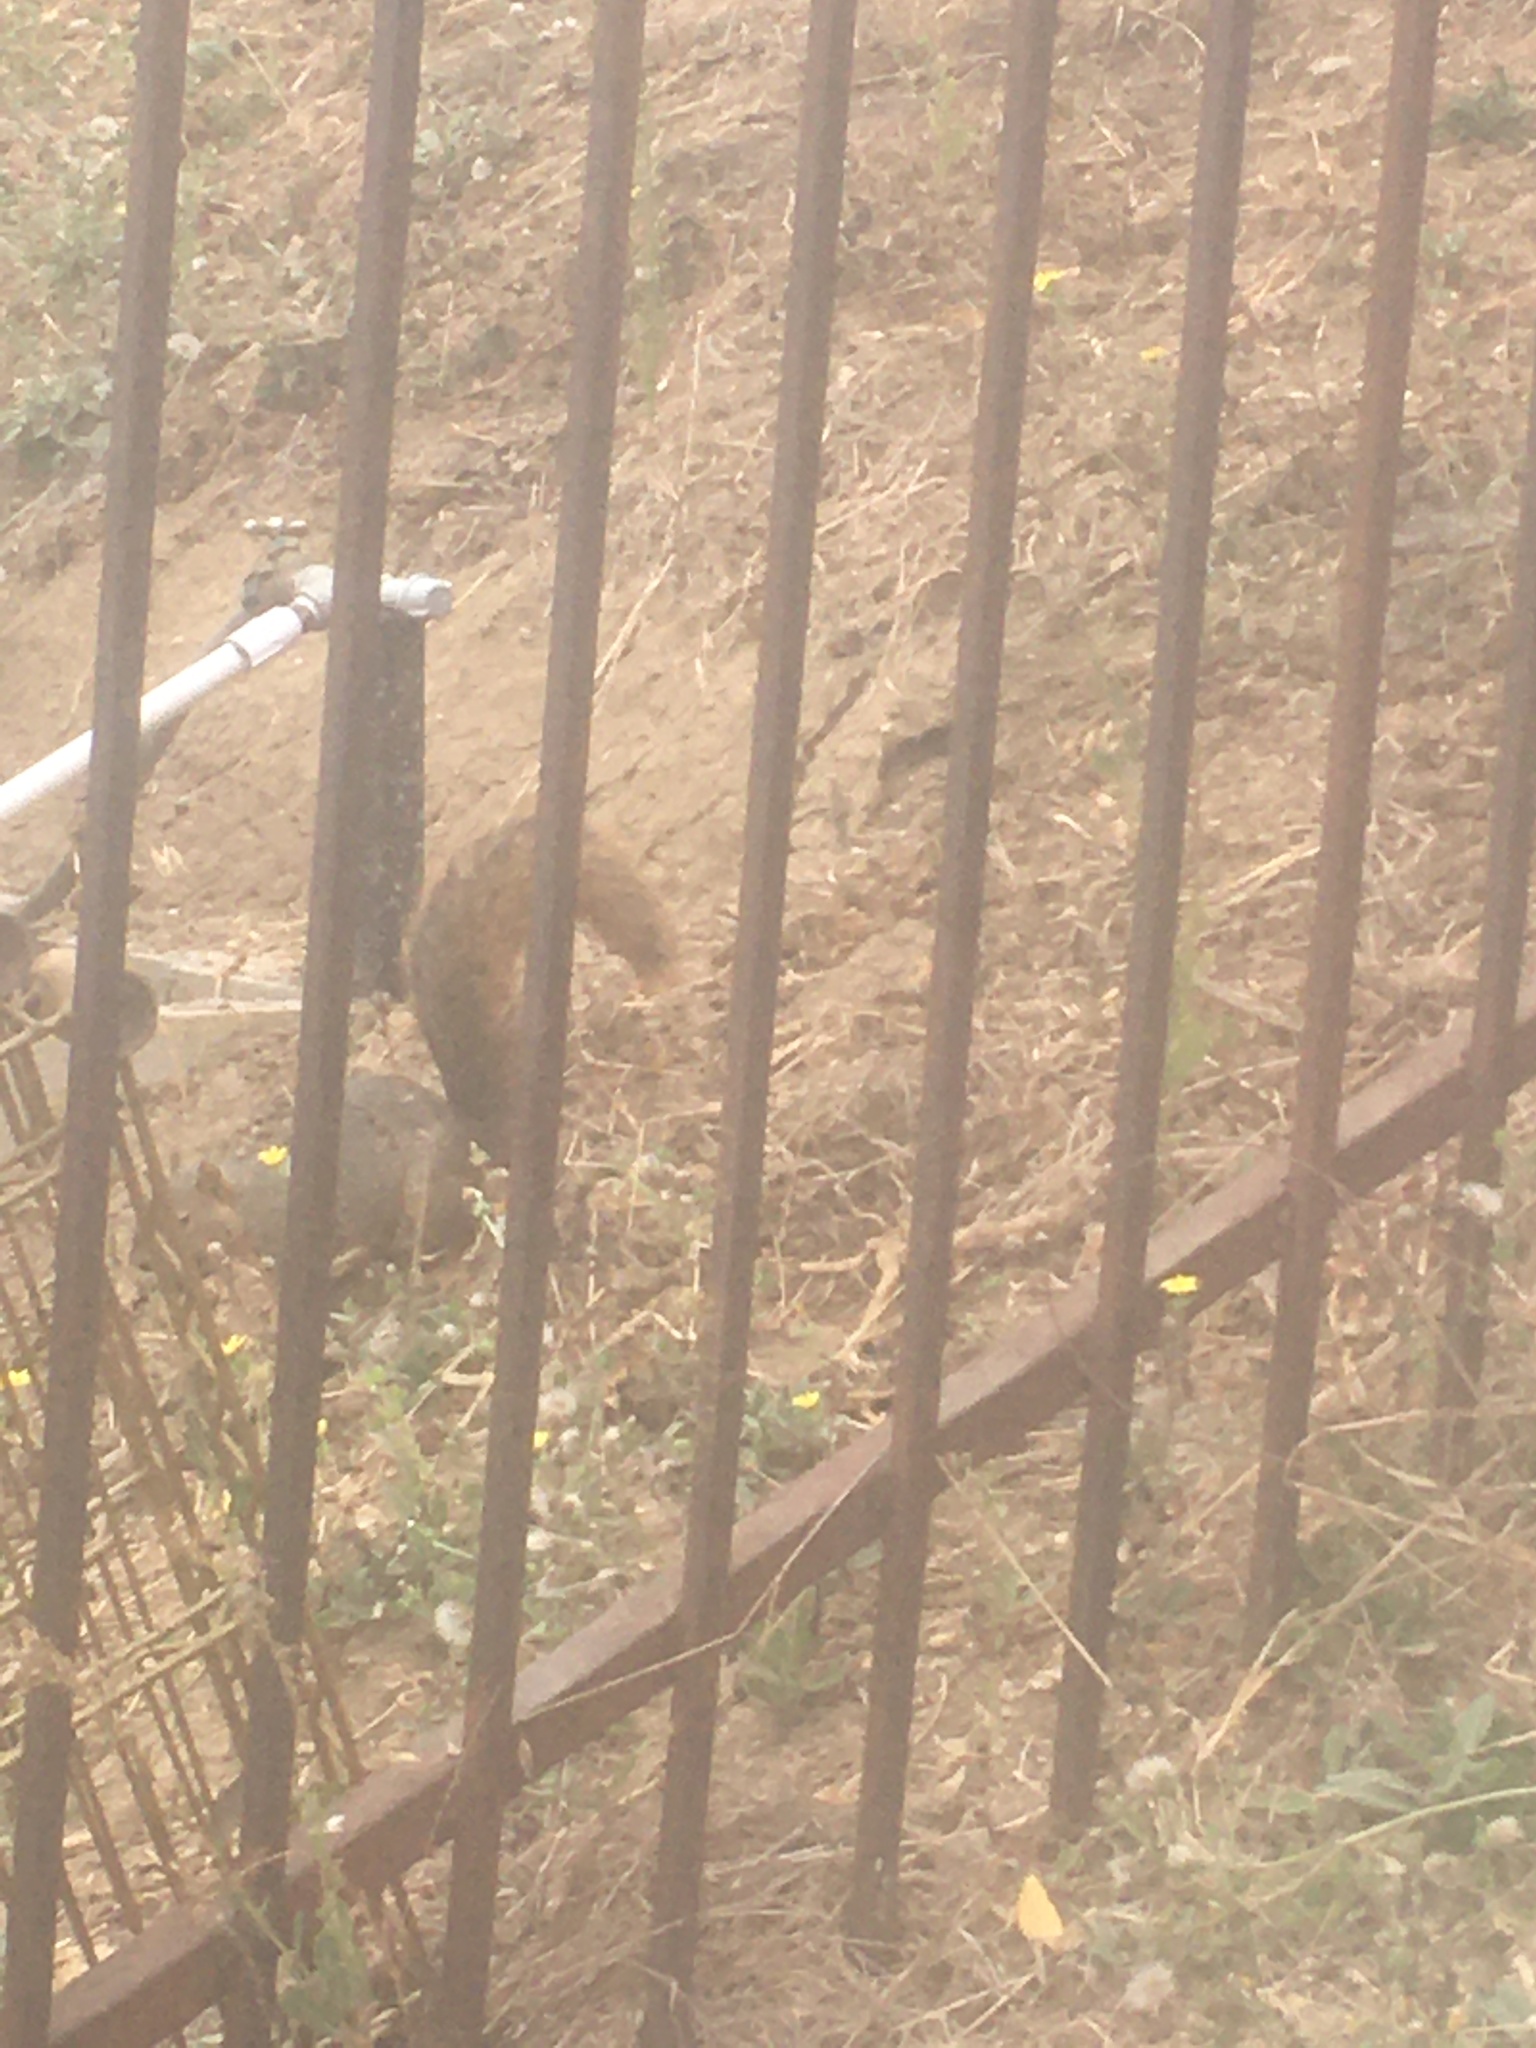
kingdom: Animalia
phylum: Chordata
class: Mammalia
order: Rodentia
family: Sciuridae
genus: Sciurus
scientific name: Sciurus niger
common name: Fox squirrel
